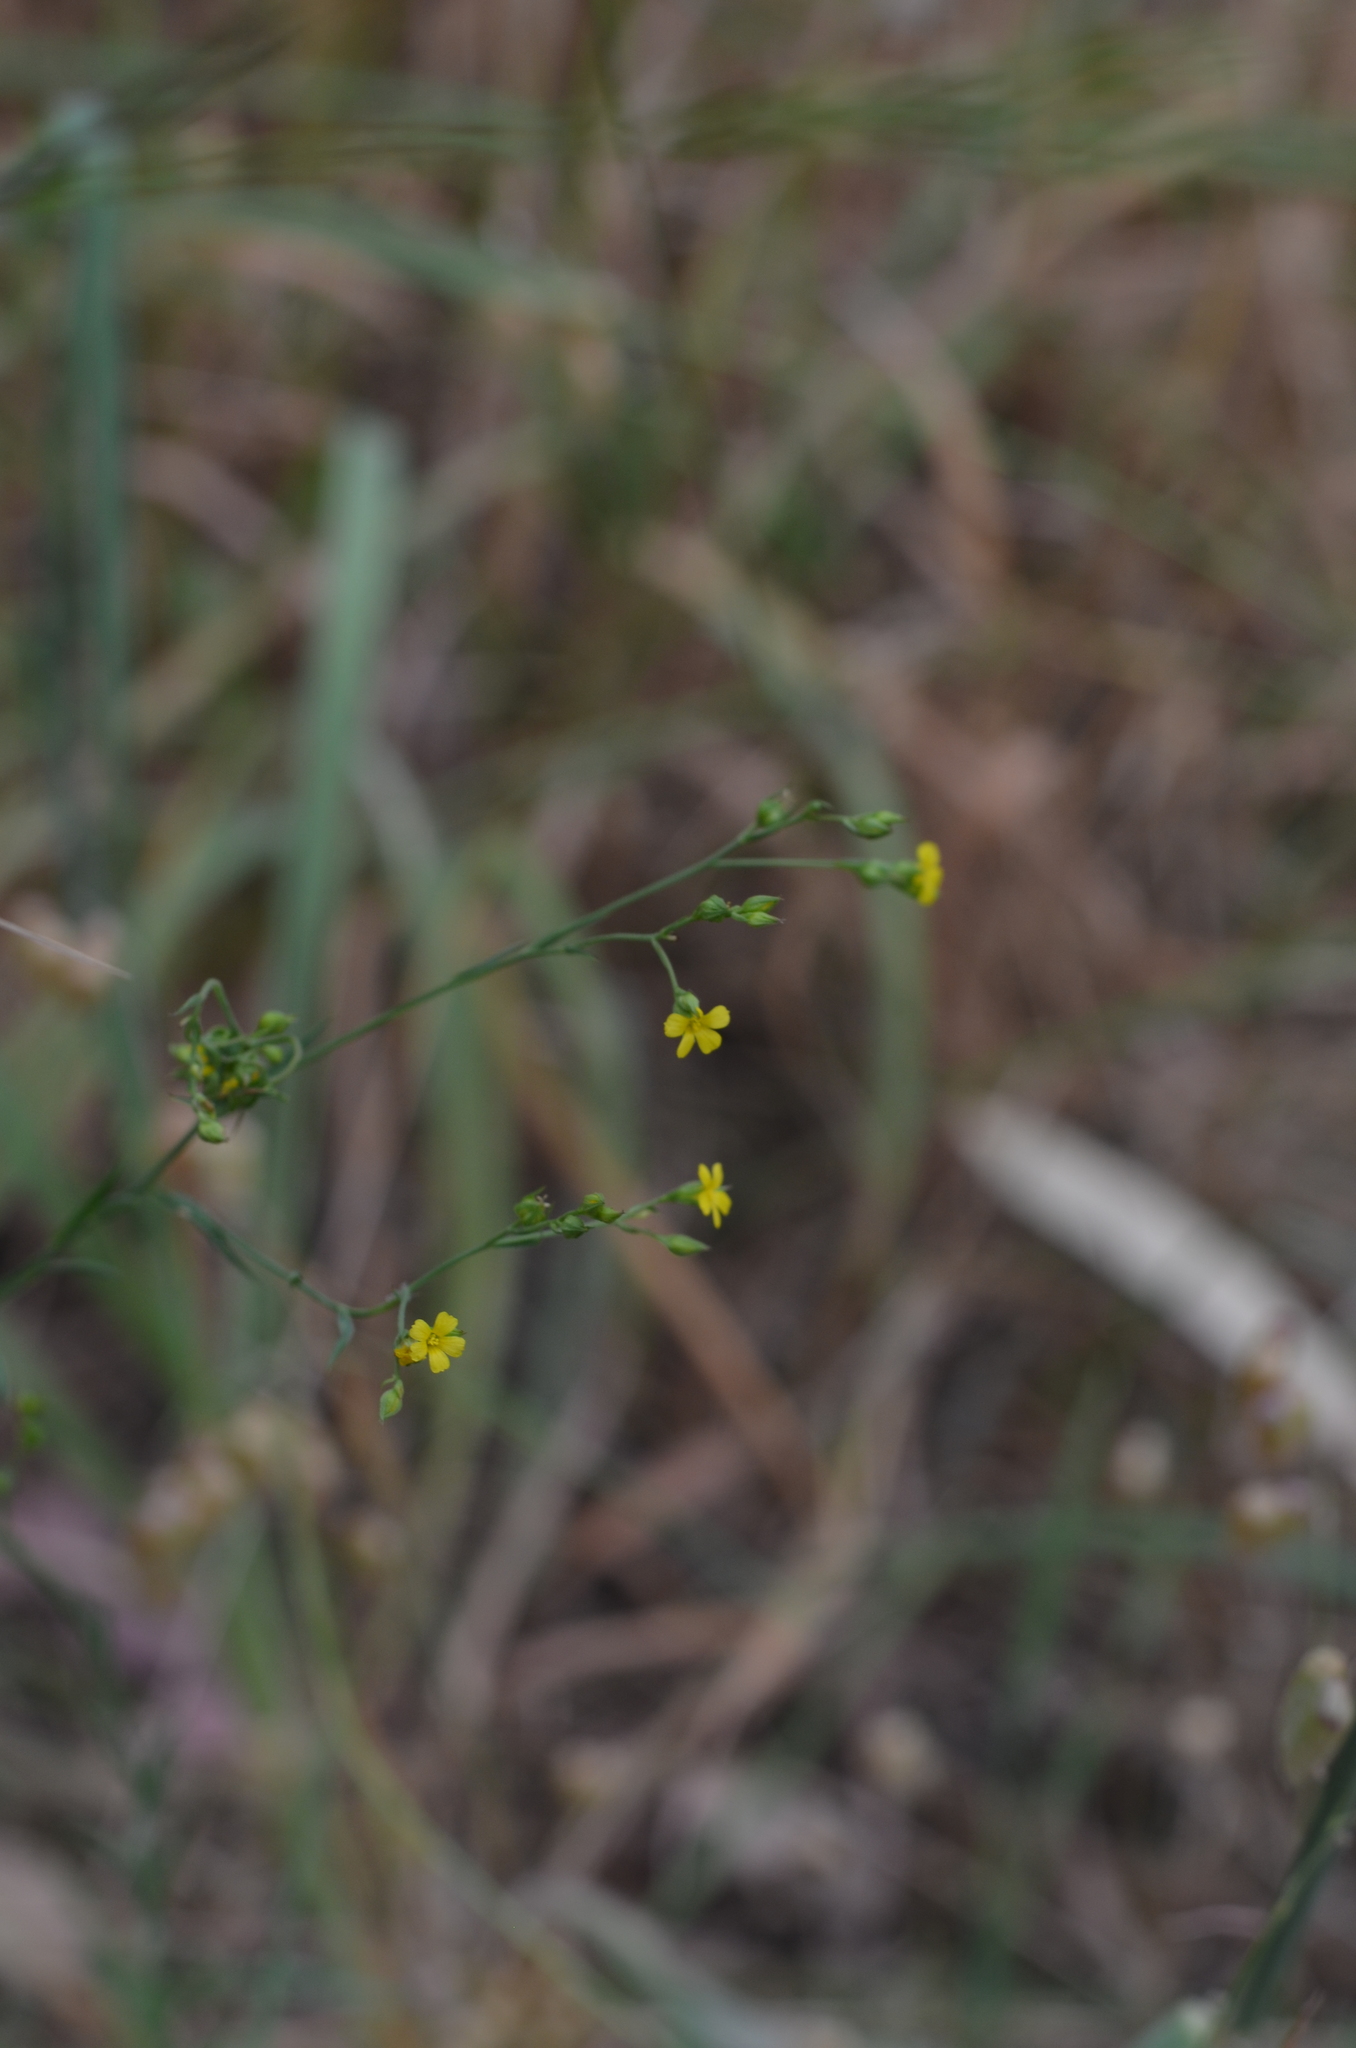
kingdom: Plantae
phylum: Tracheophyta
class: Magnoliopsida
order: Malpighiales
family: Linaceae
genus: Linum
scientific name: Linum trigynum
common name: French flax
